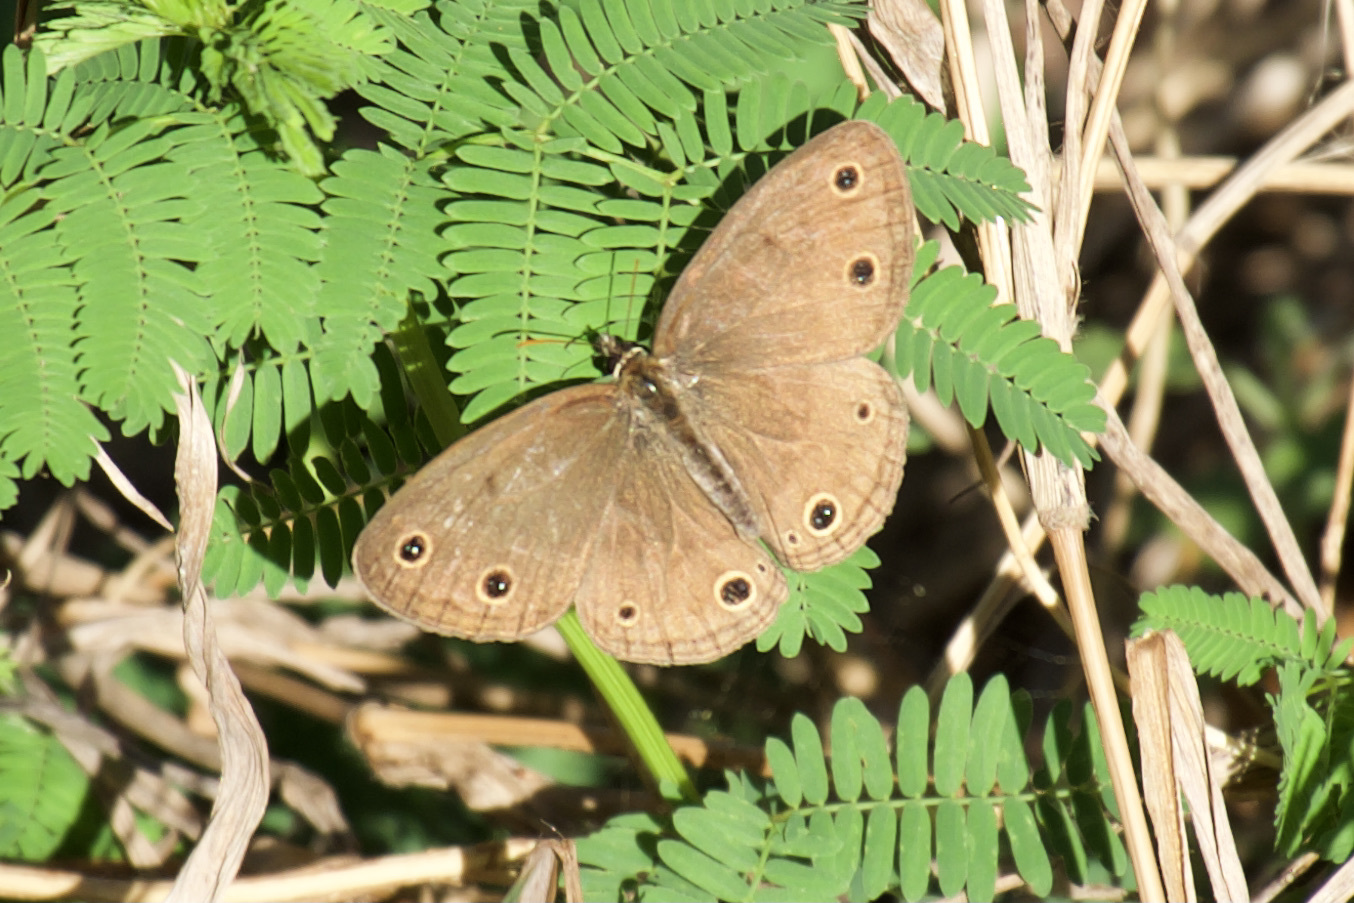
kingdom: Animalia
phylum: Arthropoda
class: Insecta
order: Lepidoptera
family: Nymphalidae
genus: Euptychia
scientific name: Euptychia cymela
